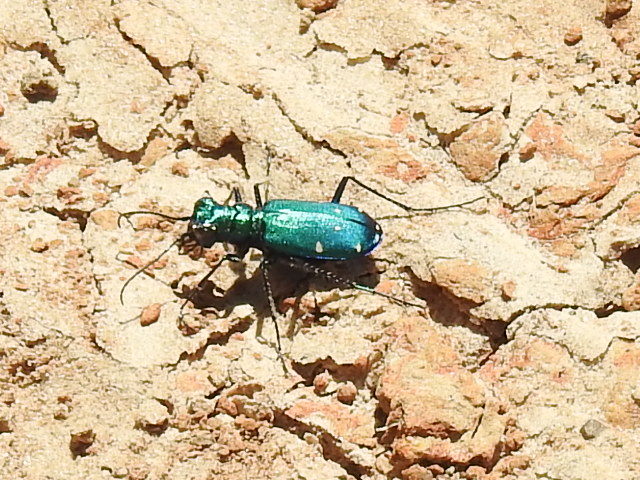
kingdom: Animalia
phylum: Arthropoda
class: Insecta
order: Coleoptera
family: Carabidae
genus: Cicindela
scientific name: Cicindela sexguttata
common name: Six-spotted tiger beetle
